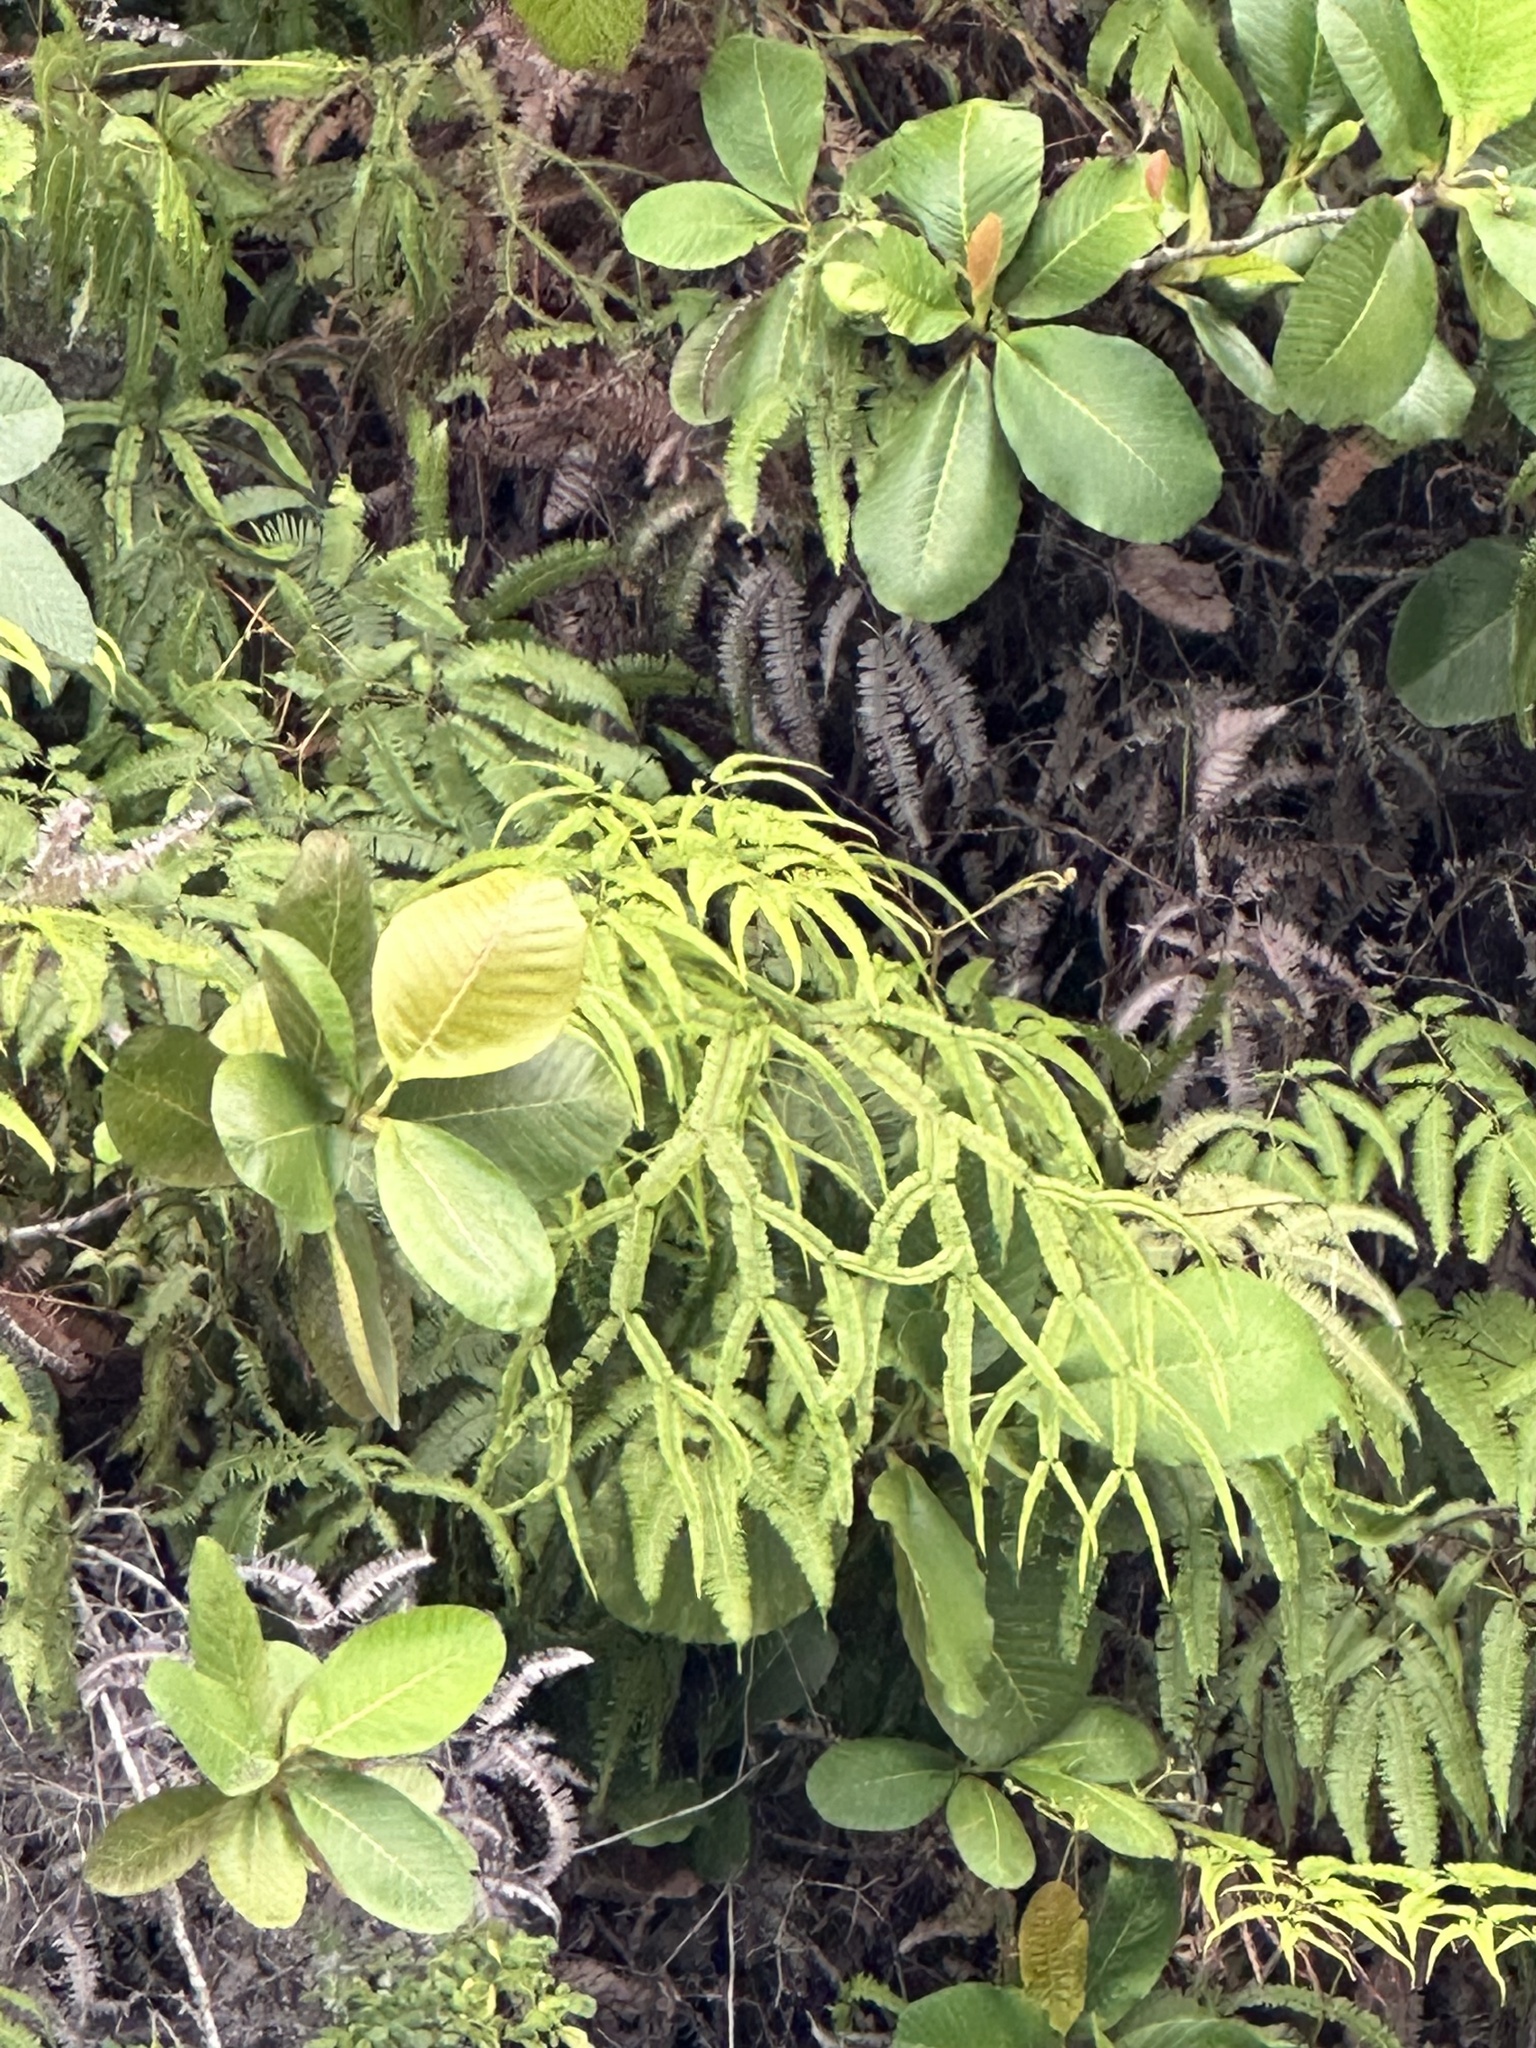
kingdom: Plantae
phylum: Tracheophyta
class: Polypodiopsida
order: Gleicheniales
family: Gleicheniaceae
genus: Sticherus
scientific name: Sticherus truncatus
